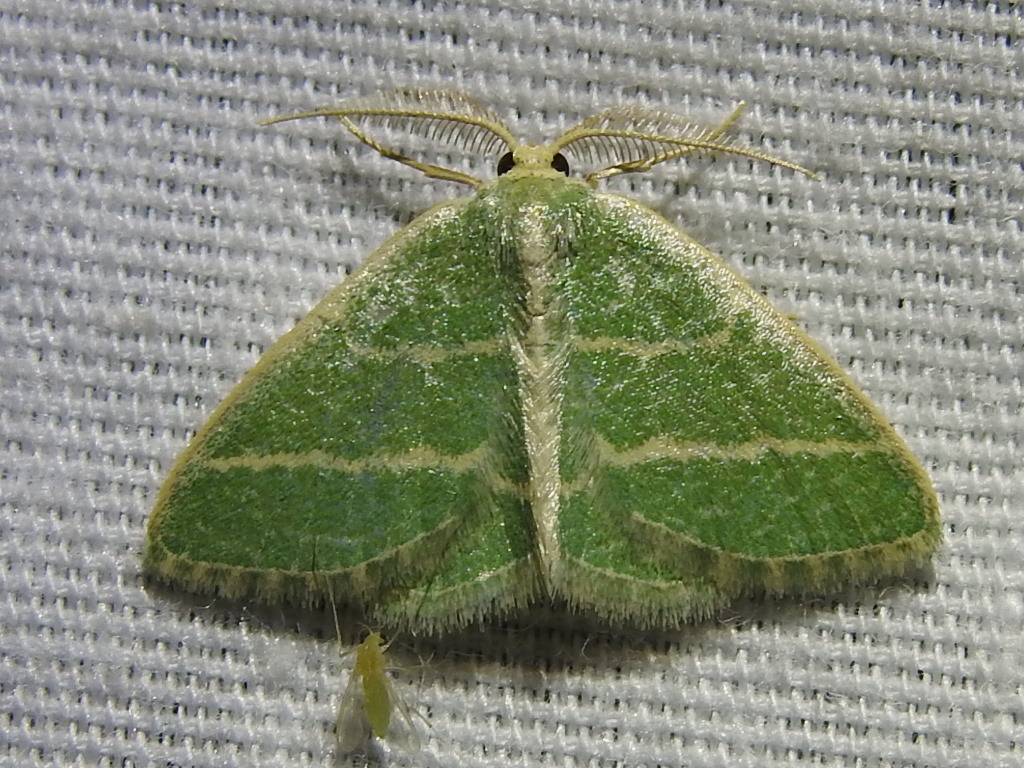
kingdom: Animalia
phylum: Arthropoda
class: Insecta
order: Lepidoptera
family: Geometridae
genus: Chlorochlamys
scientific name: Chlorochlamys chloroleucaria
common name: Blackberry looper
